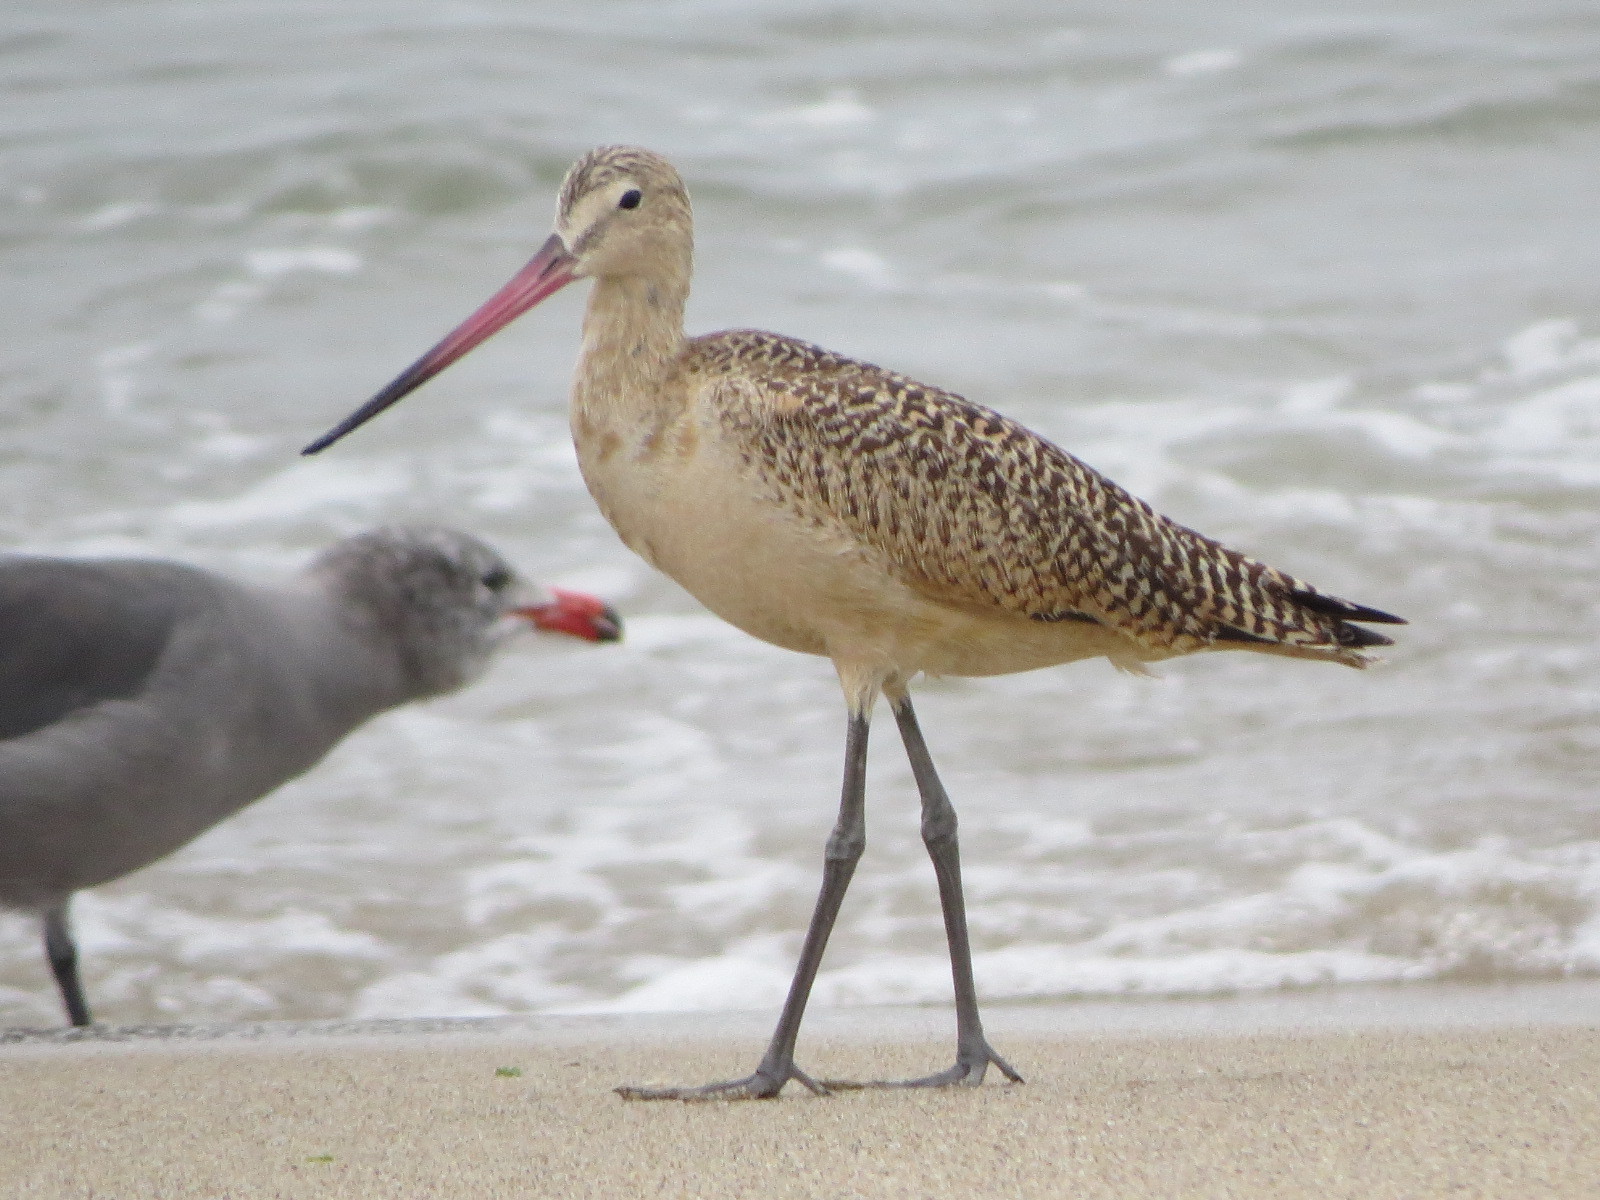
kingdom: Animalia
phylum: Chordata
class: Aves
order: Charadriiformes
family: Scolopacidae
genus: Limosa
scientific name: Limosa fedoa
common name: Marbled godwit
